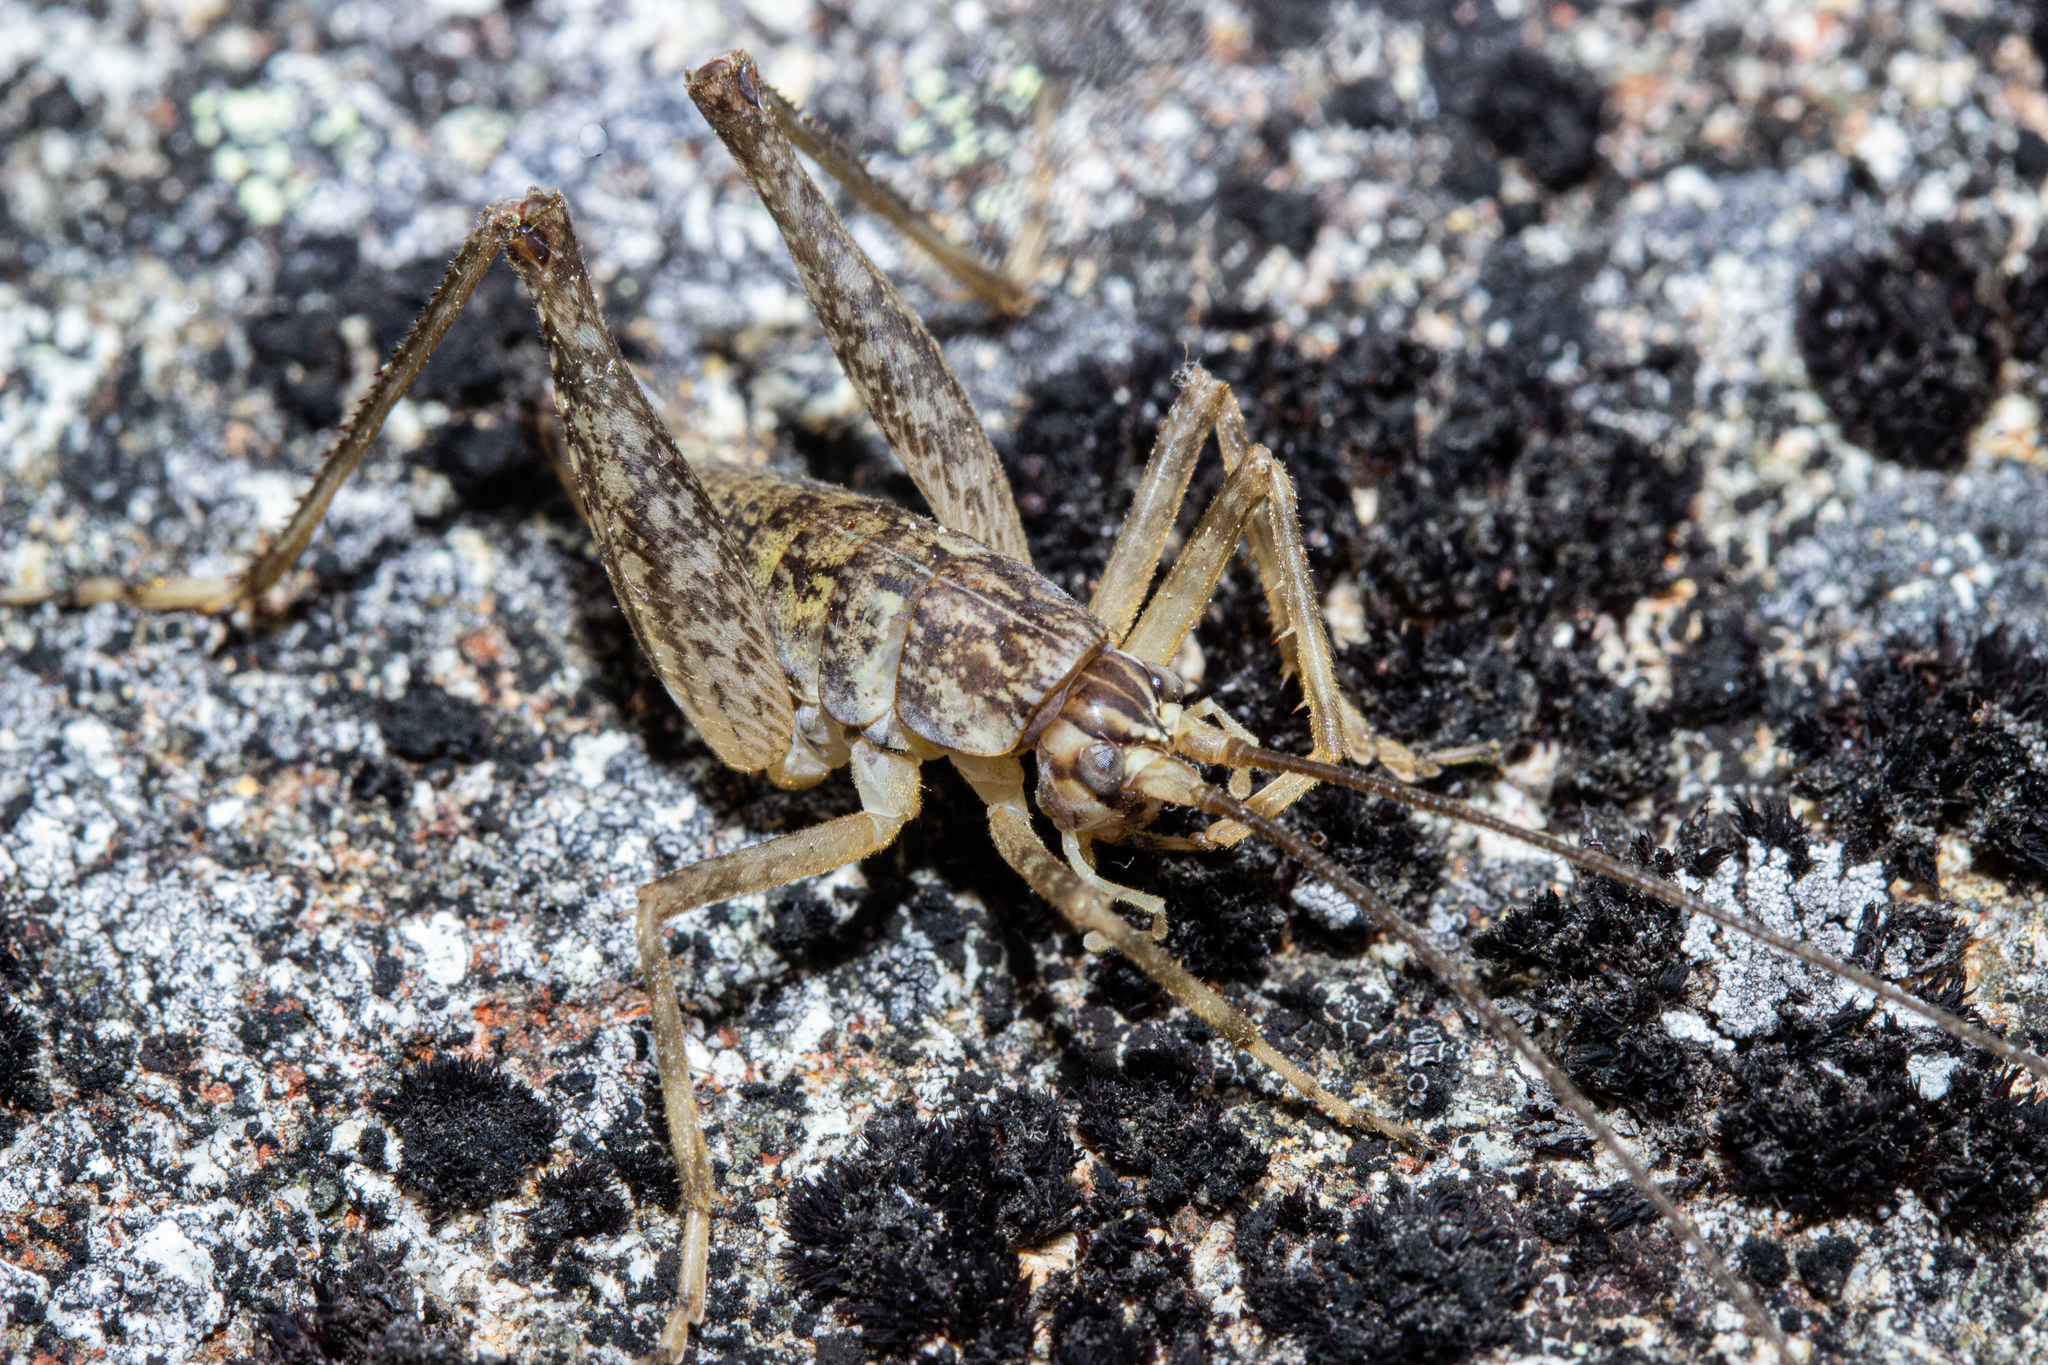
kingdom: Animalia
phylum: Arthropoda
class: Insecta
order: Orthoptera
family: Rhaphidophoridae
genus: Pharmacus
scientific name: Pharmacus perfidus
